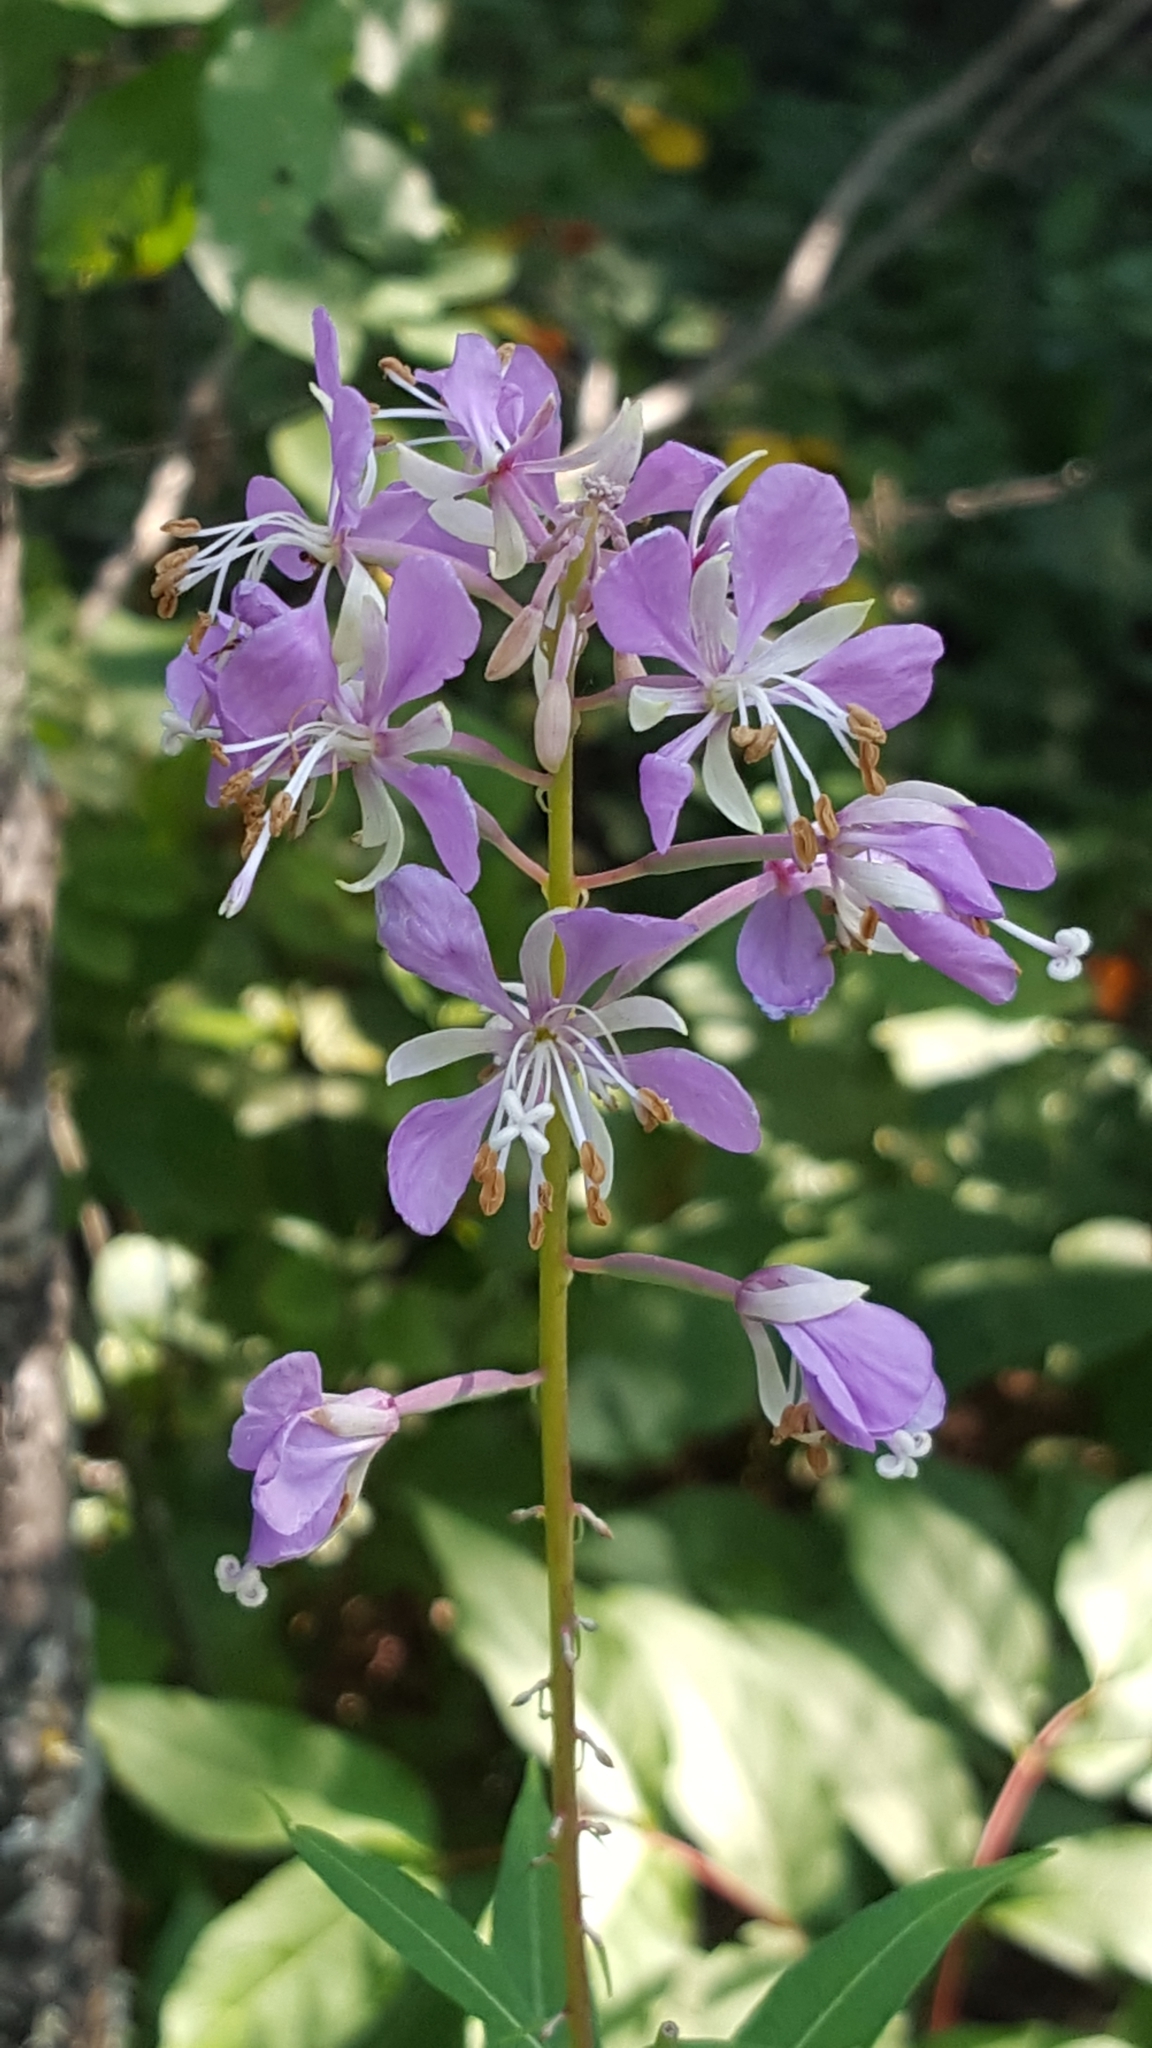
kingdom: Plantae
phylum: Tracheophyta
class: Magnoliopsida
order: Myrtales
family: Onagraceae
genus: Chamaenerion
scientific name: Chamaenerion angustifolium
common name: Fireweed
